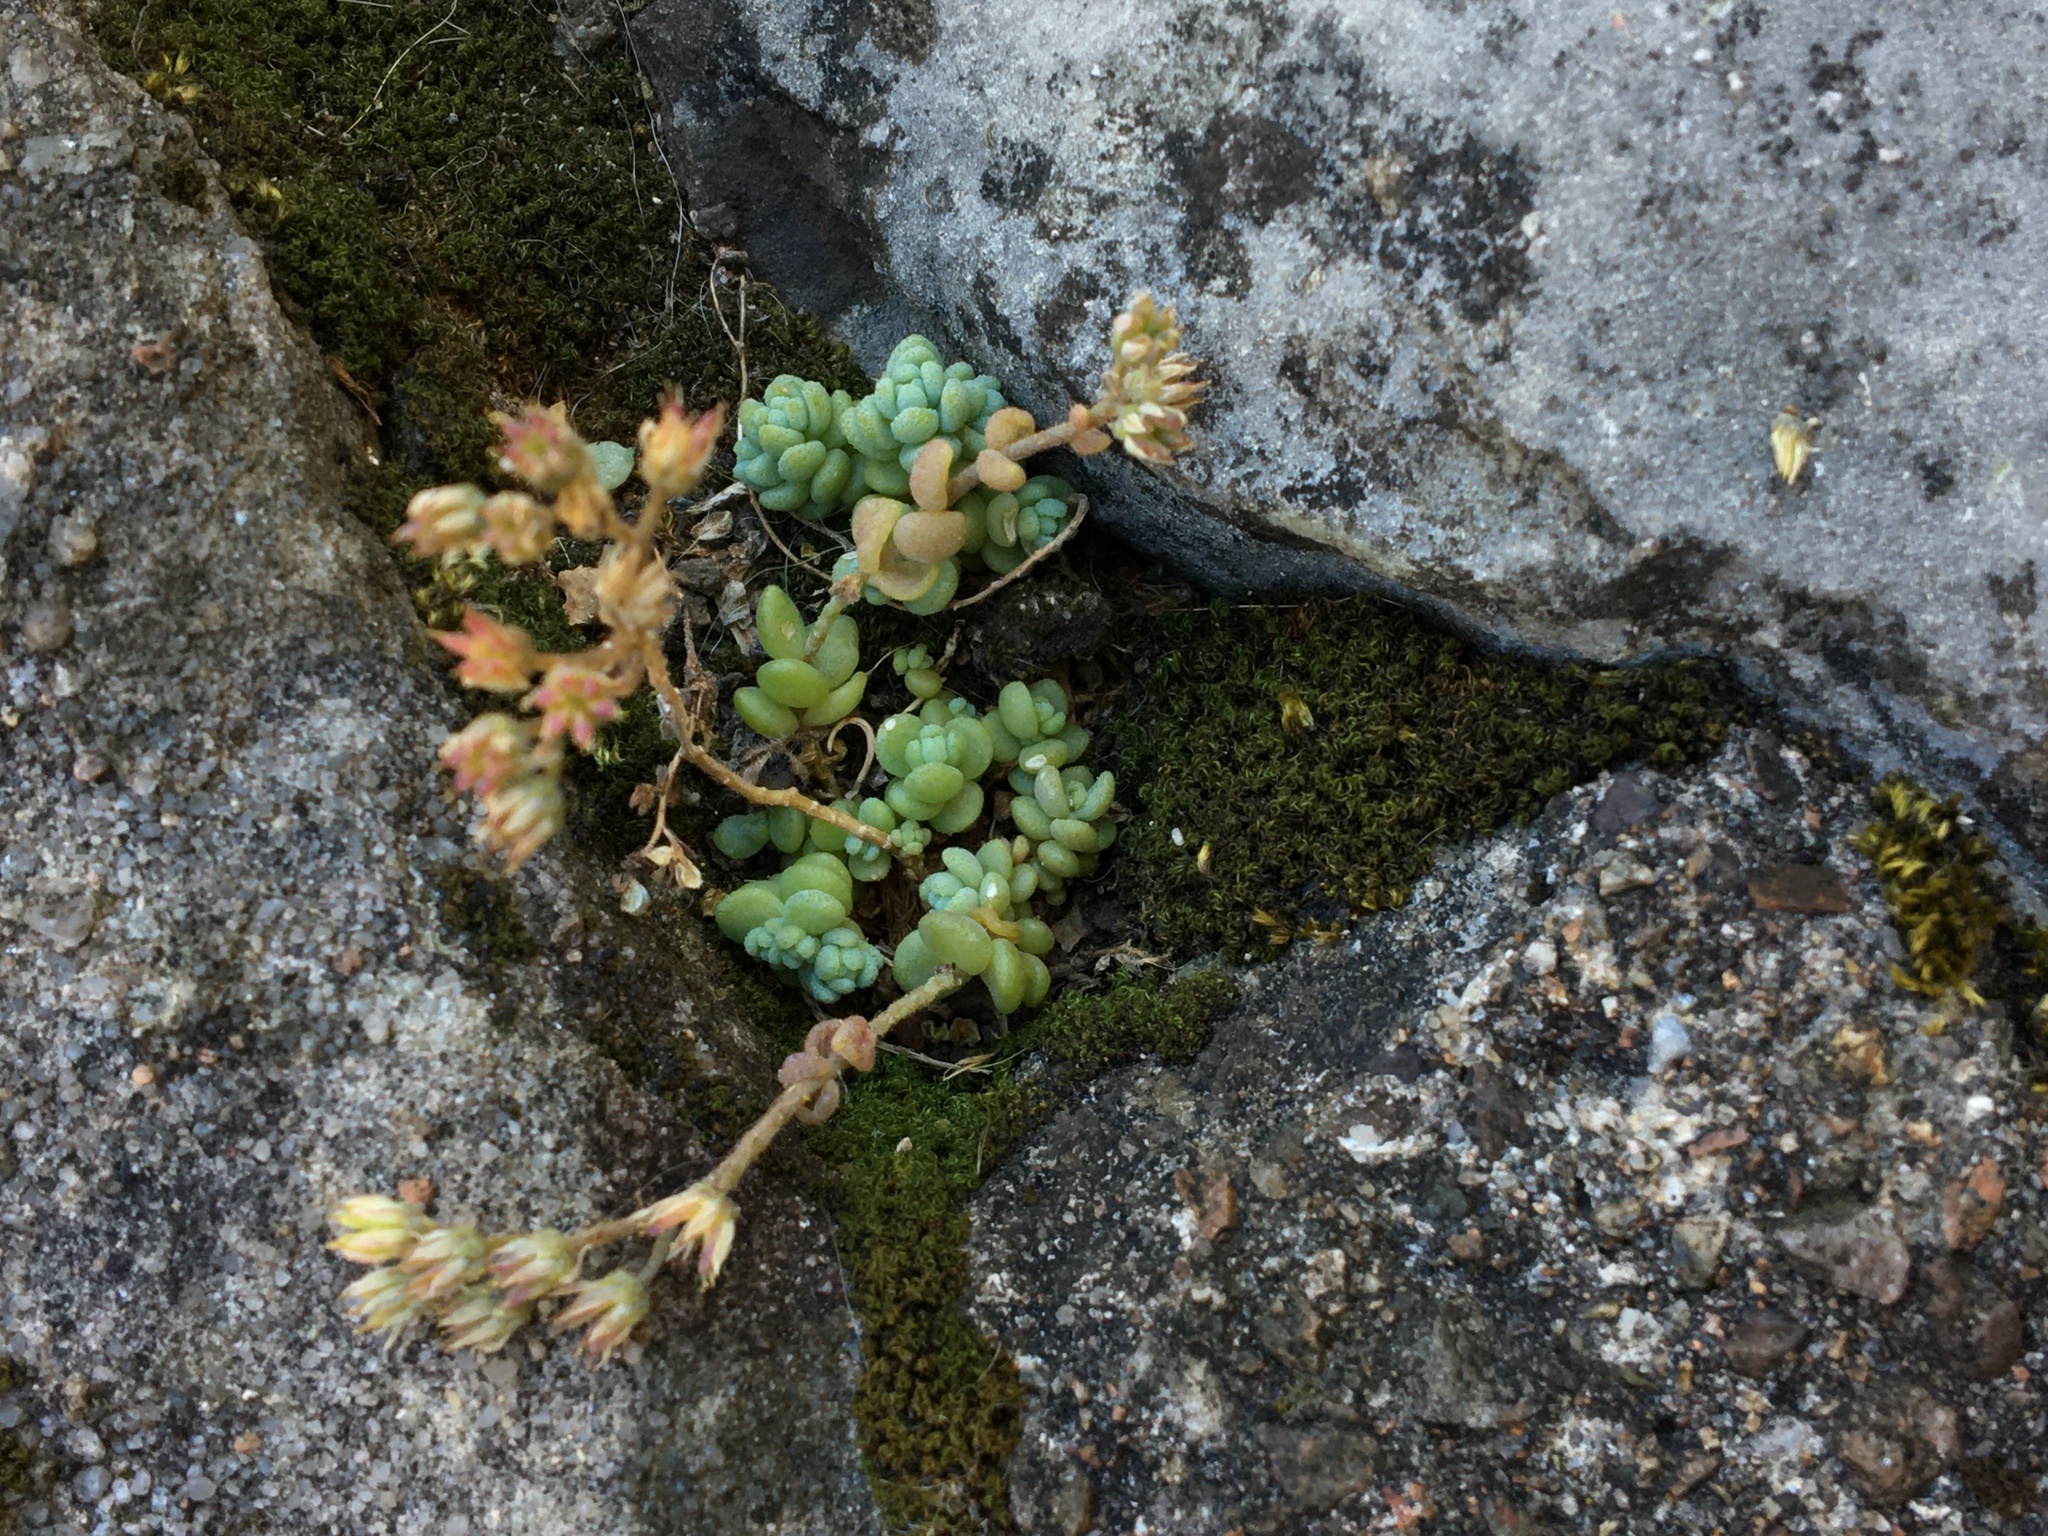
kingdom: Plantae
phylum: Tracheophyta
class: Magnoliopsida
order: Saxifragales
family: Crassulaceae
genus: Sedum
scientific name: Sedum dasyphyllum
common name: Thick-leaf stonecrop
